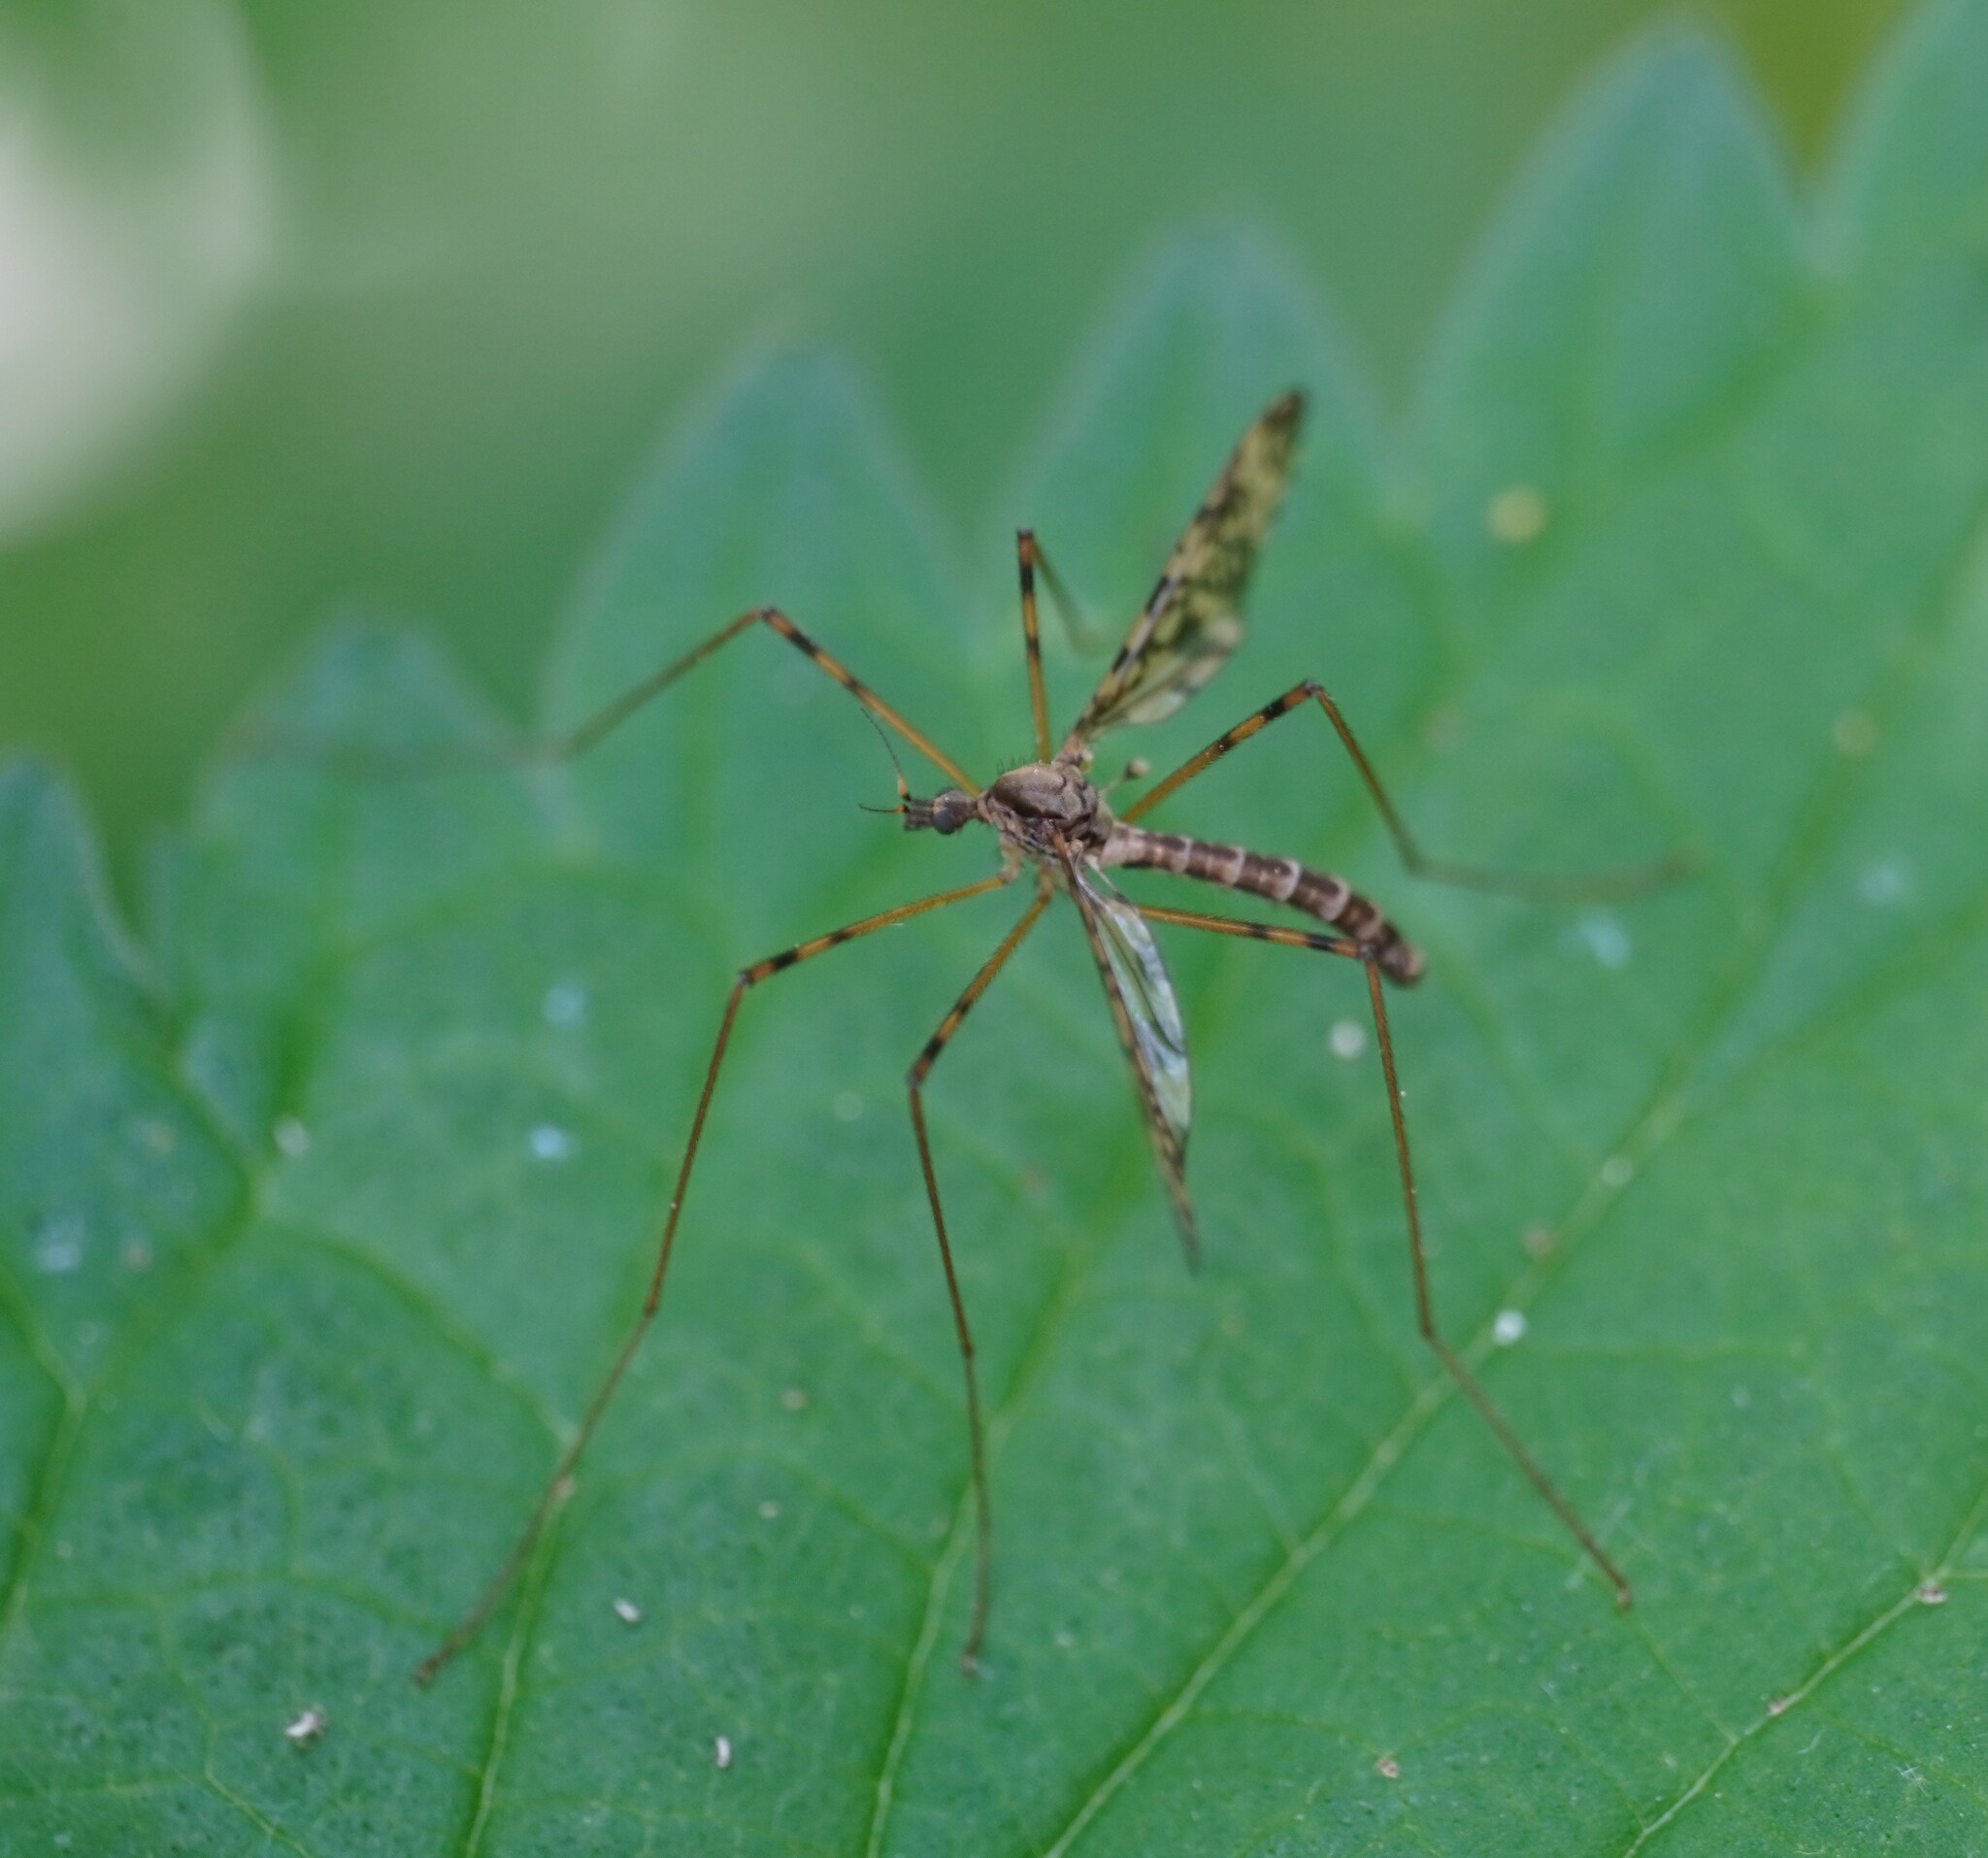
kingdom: Animalia
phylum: Arthropoda
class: Insecta
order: Diptera
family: Limoniidae
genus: Epiphragma
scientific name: Epiphragma ocellare
